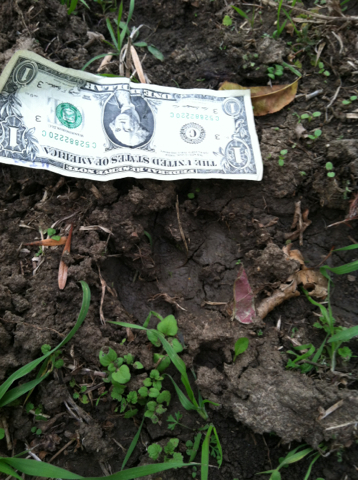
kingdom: Animalia
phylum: Chordata
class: Mammalia
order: Artiodactyla
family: Suidae
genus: Sus
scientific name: Sus scrofa
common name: Wild boar
